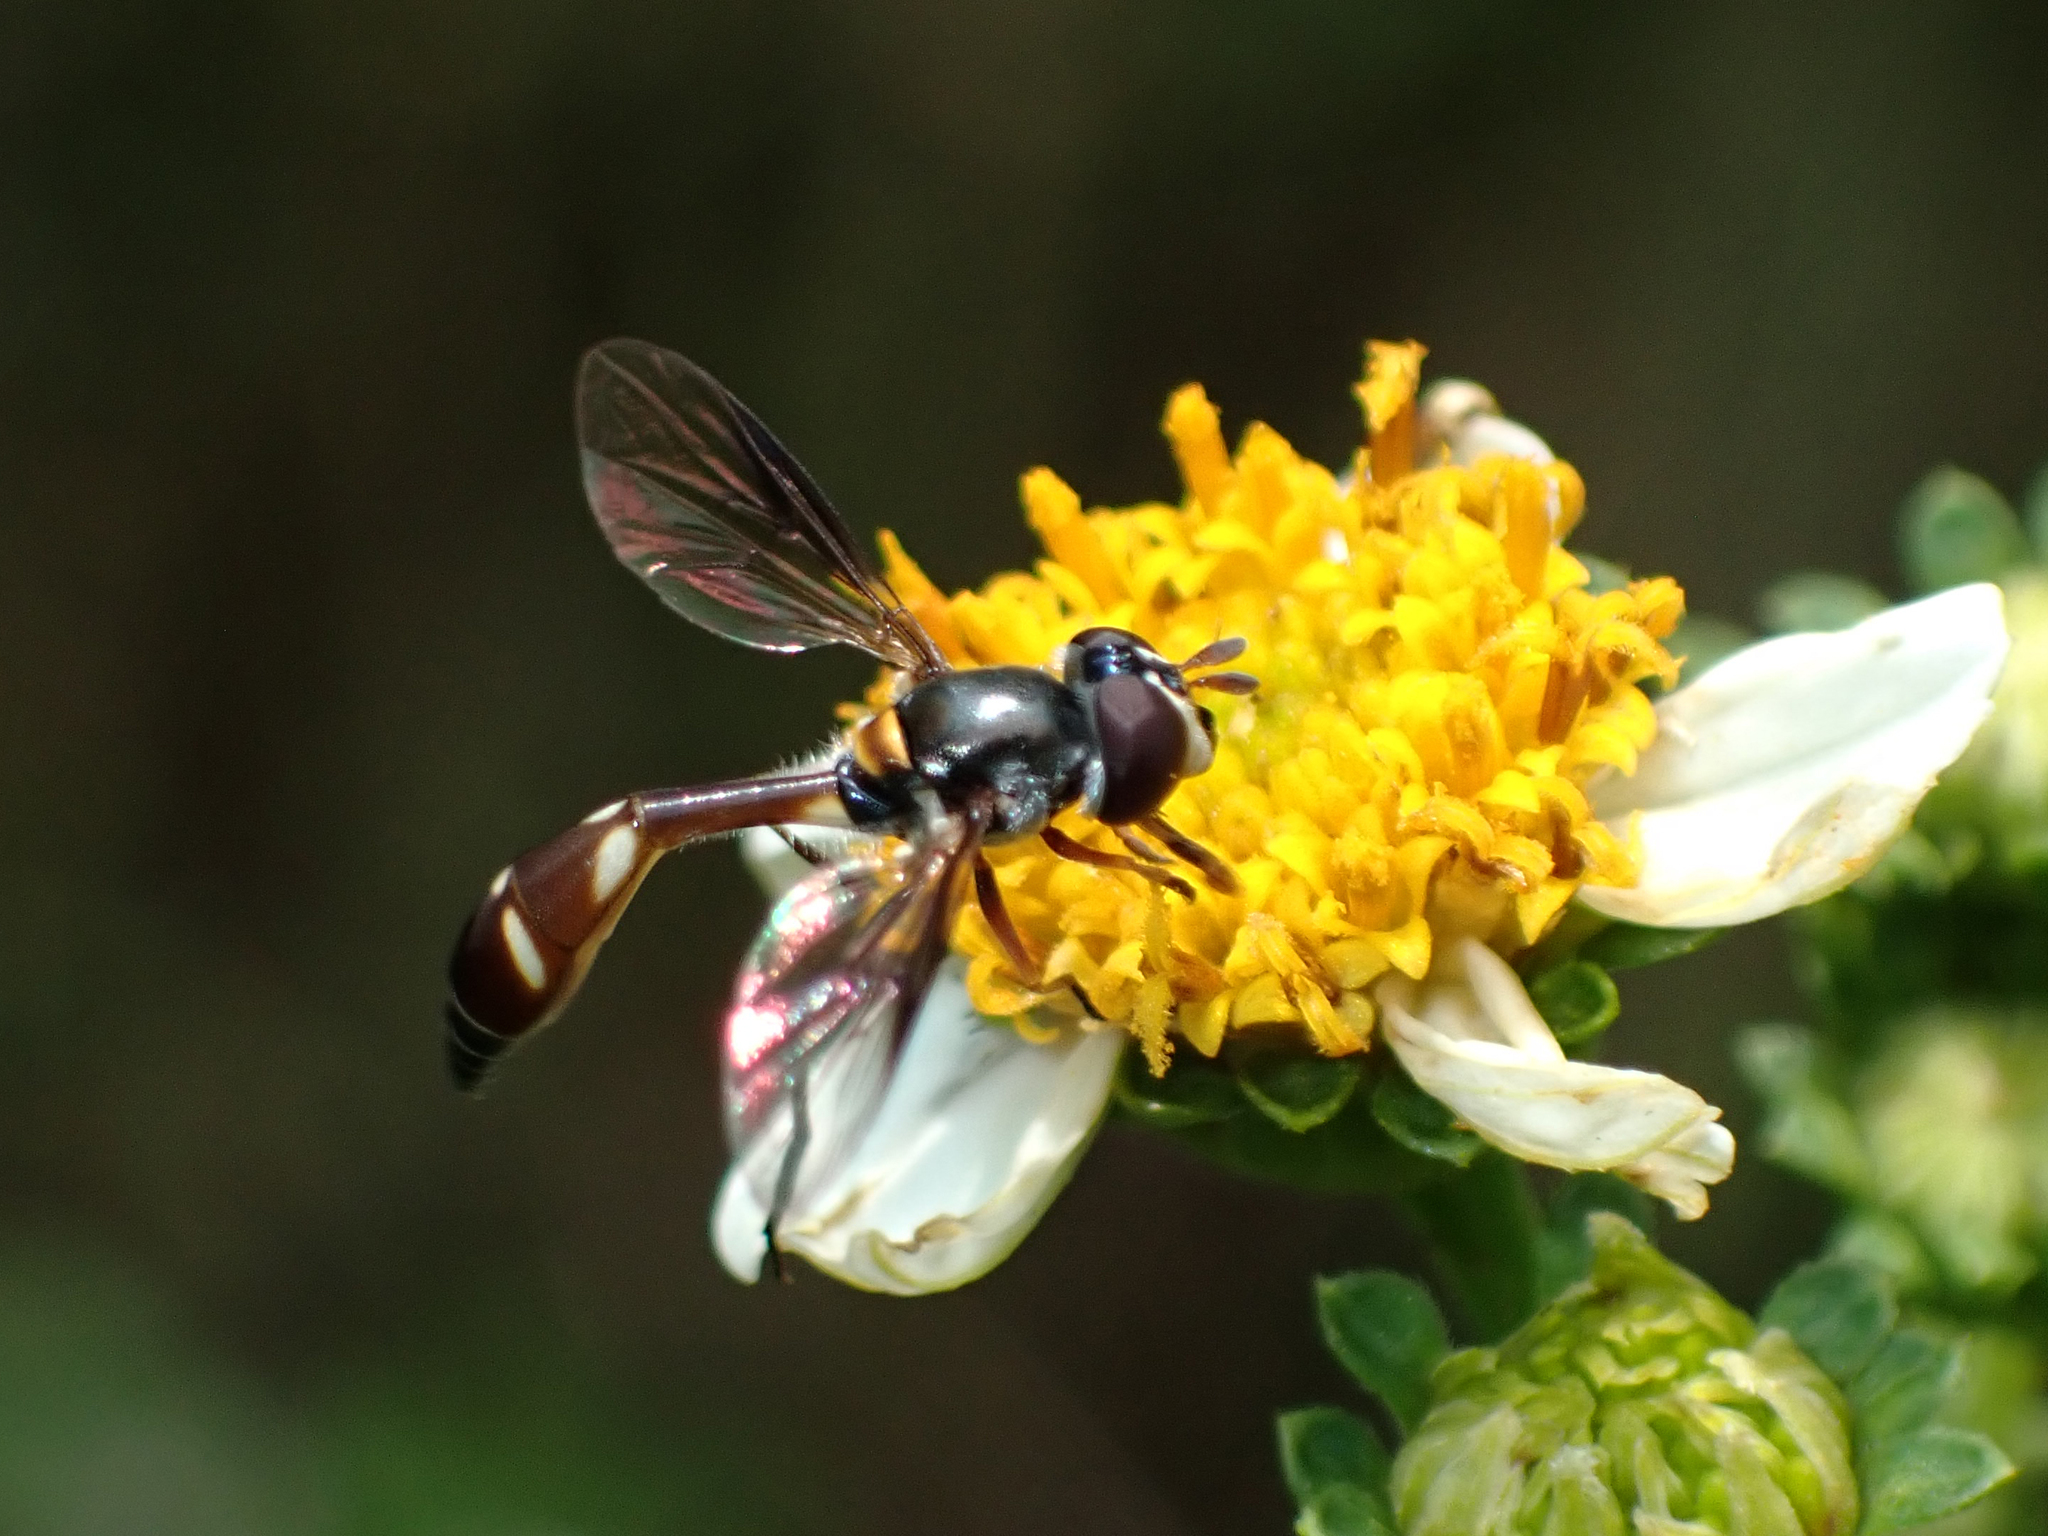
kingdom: Animalia
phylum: Arthropoda
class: Insecta
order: Diptera
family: Syrphidae
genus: Dioprosopa
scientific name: Dioprosopa clavatus
